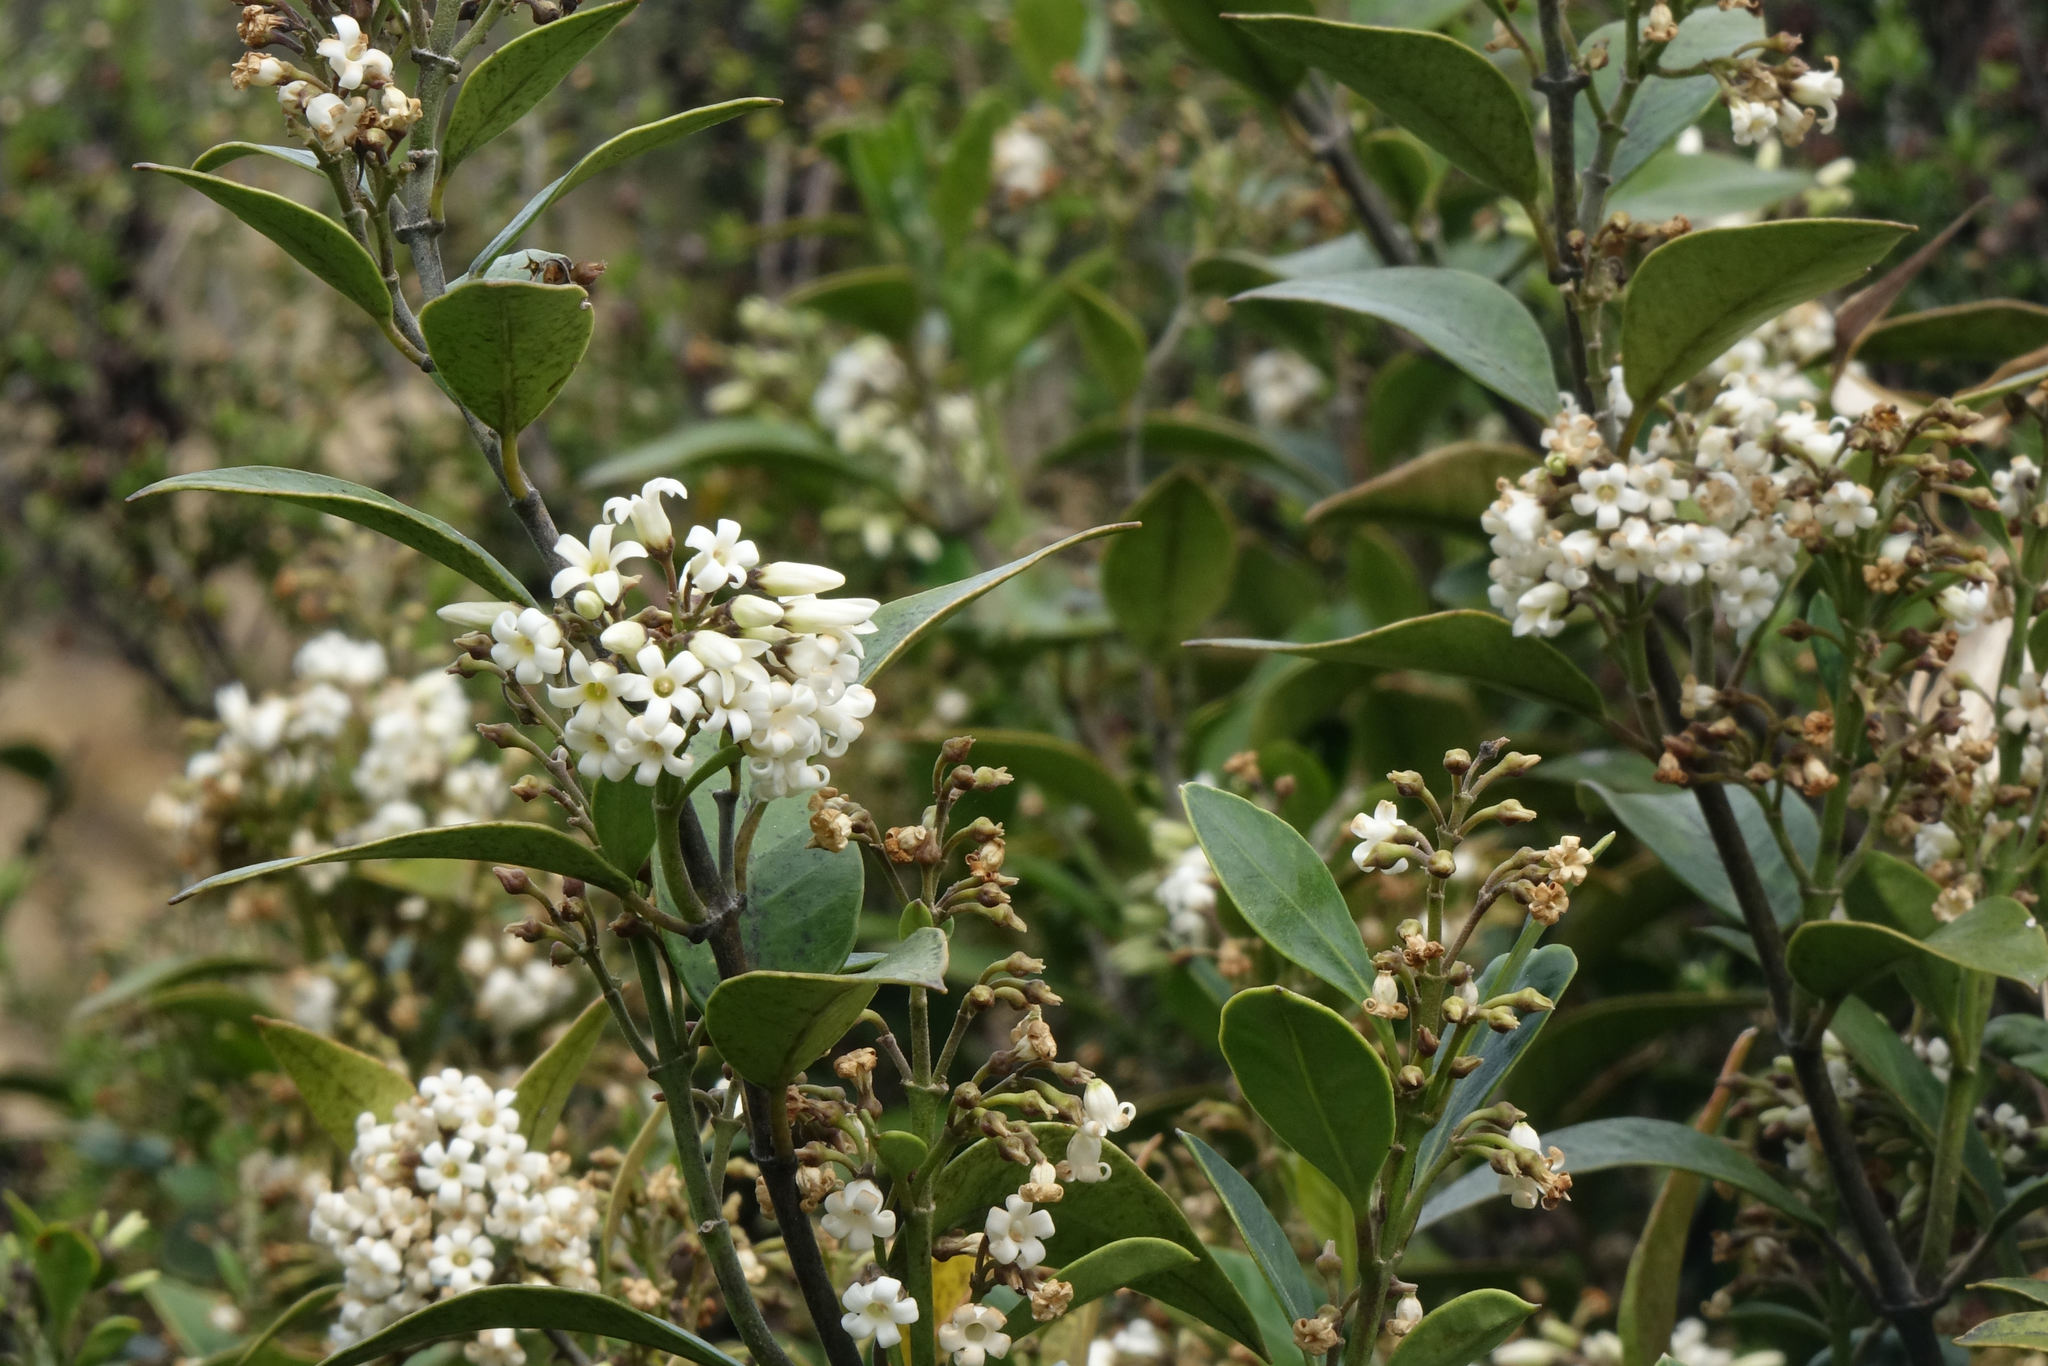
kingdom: Plantae
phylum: Tracheophyta
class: Magnoliopsida
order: Gentianales
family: Apocynaceae
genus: Parsonsia
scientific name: Parsonsia heterophylla
